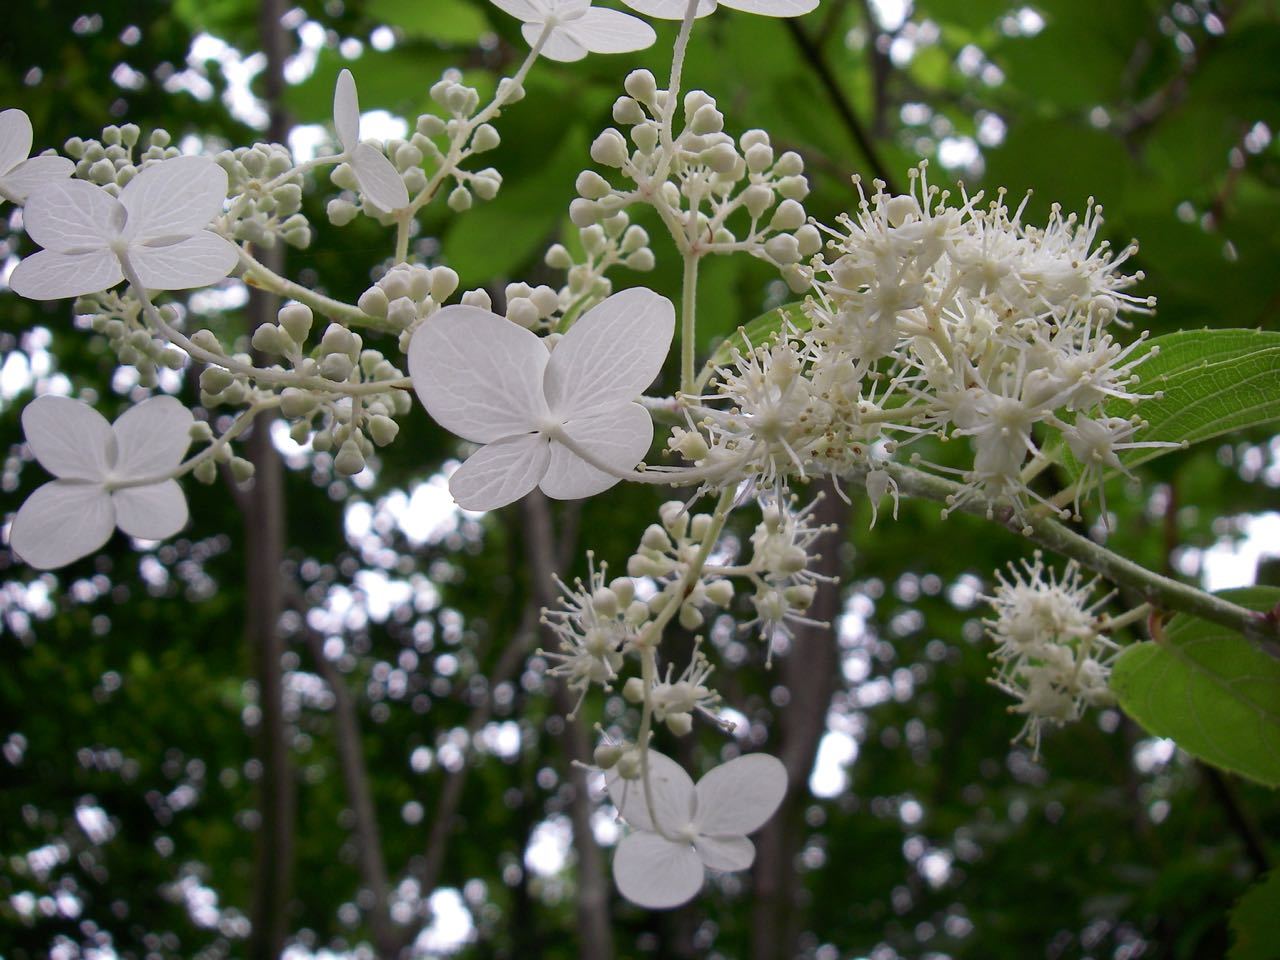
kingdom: Plantae
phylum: Tracheophyta
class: Magnoliopsida
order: Cornales
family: Hydrangeaceae
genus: Hydrangea
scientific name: Hydrangea paniculata
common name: Panicled hydrangea
